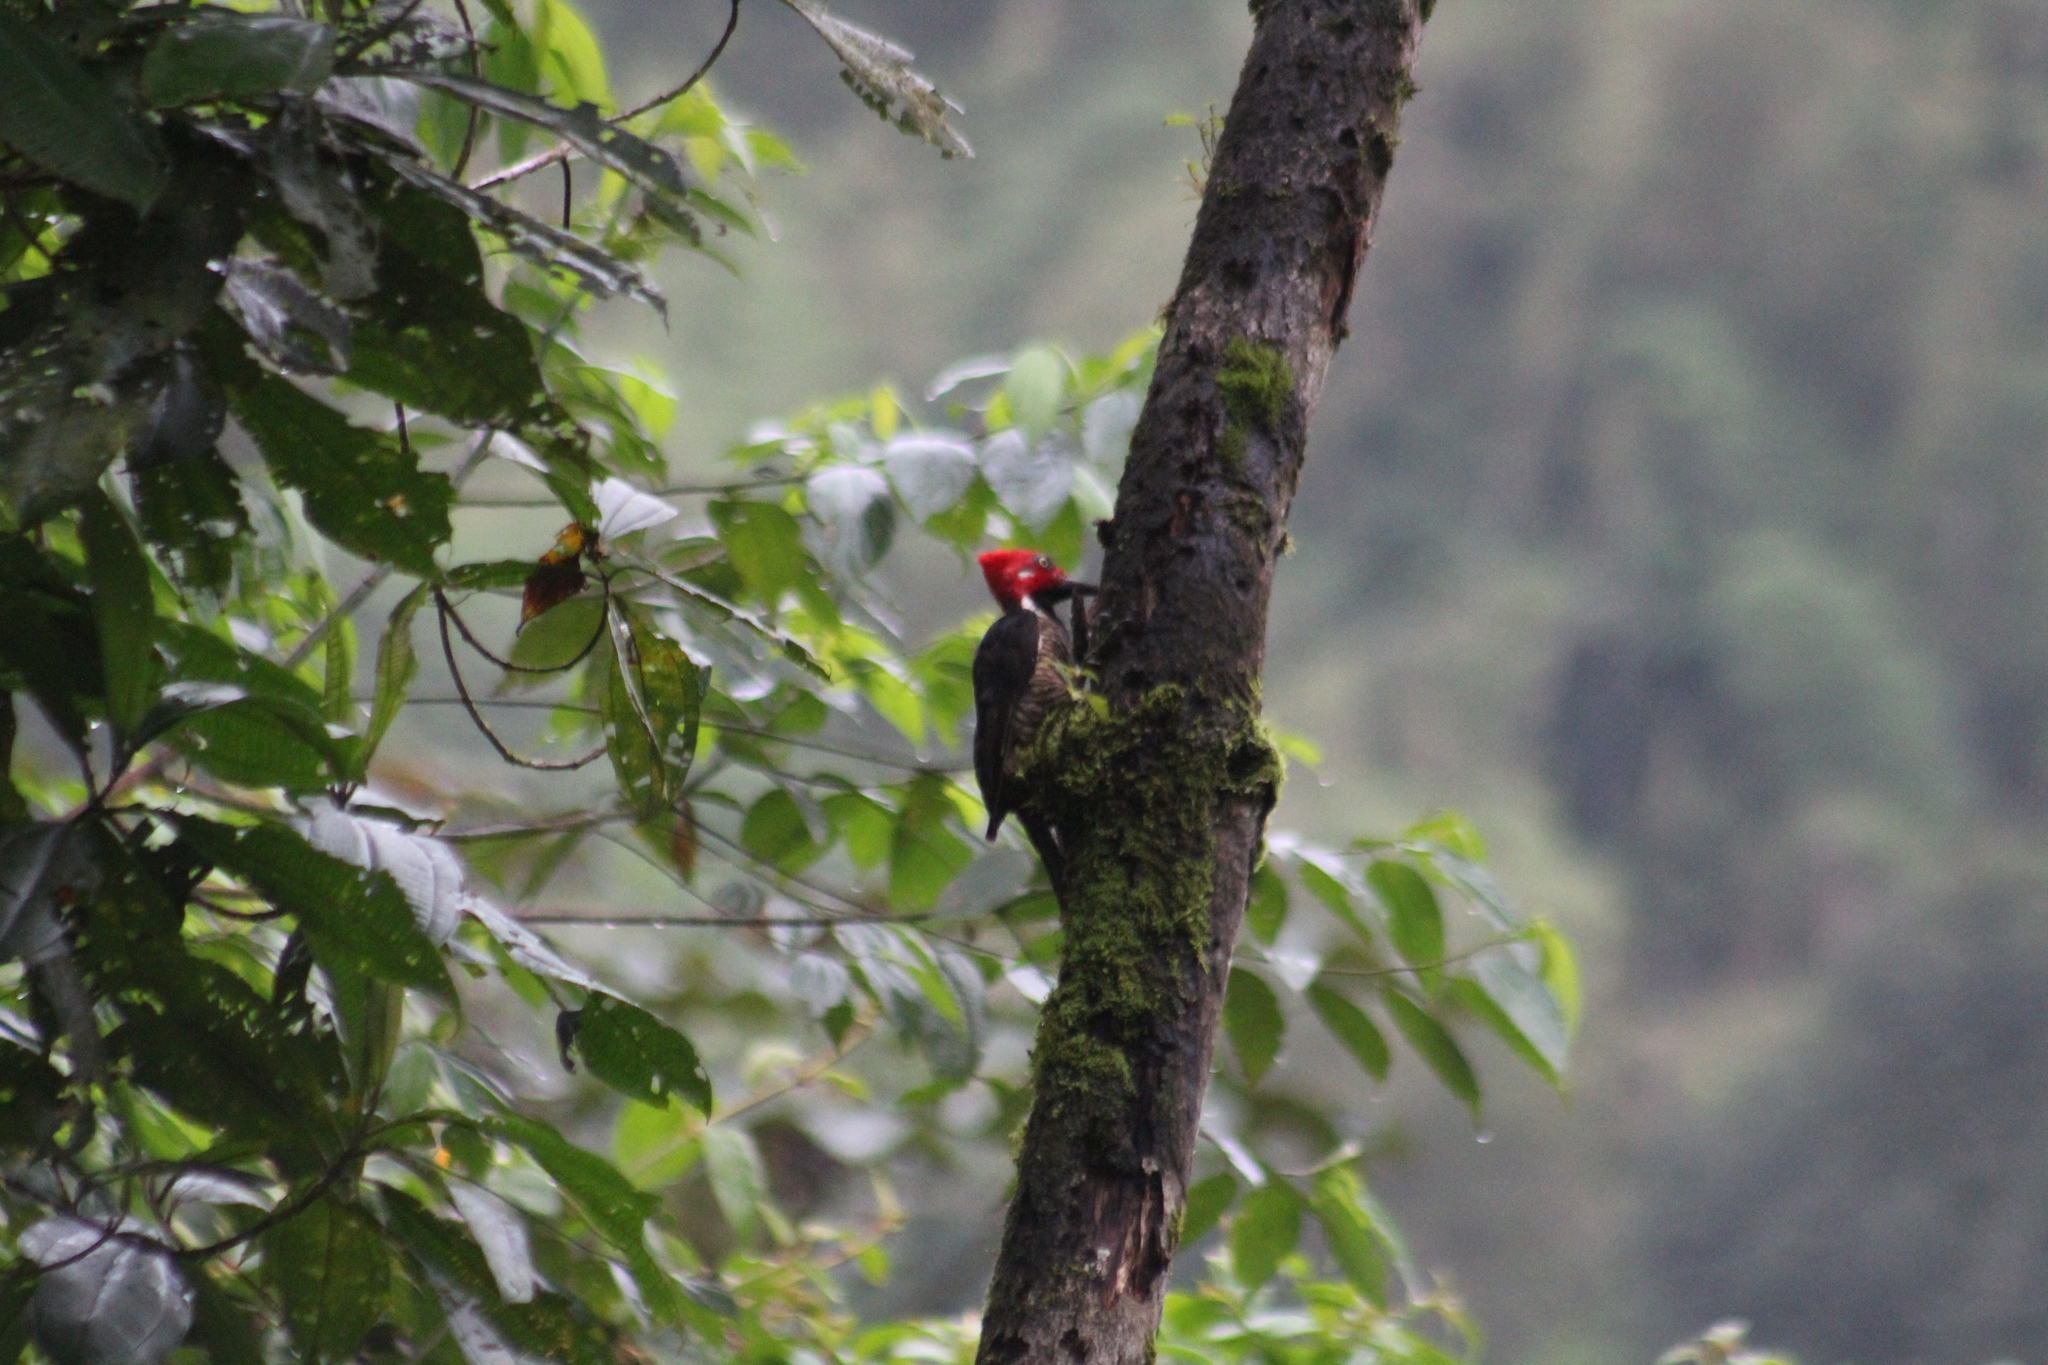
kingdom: Animalia
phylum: Chordata
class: Aves
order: Piciformes
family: Picidae
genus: Campephilus
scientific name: Campephilus gayaquilensis
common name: Guayaquil woodpecker
